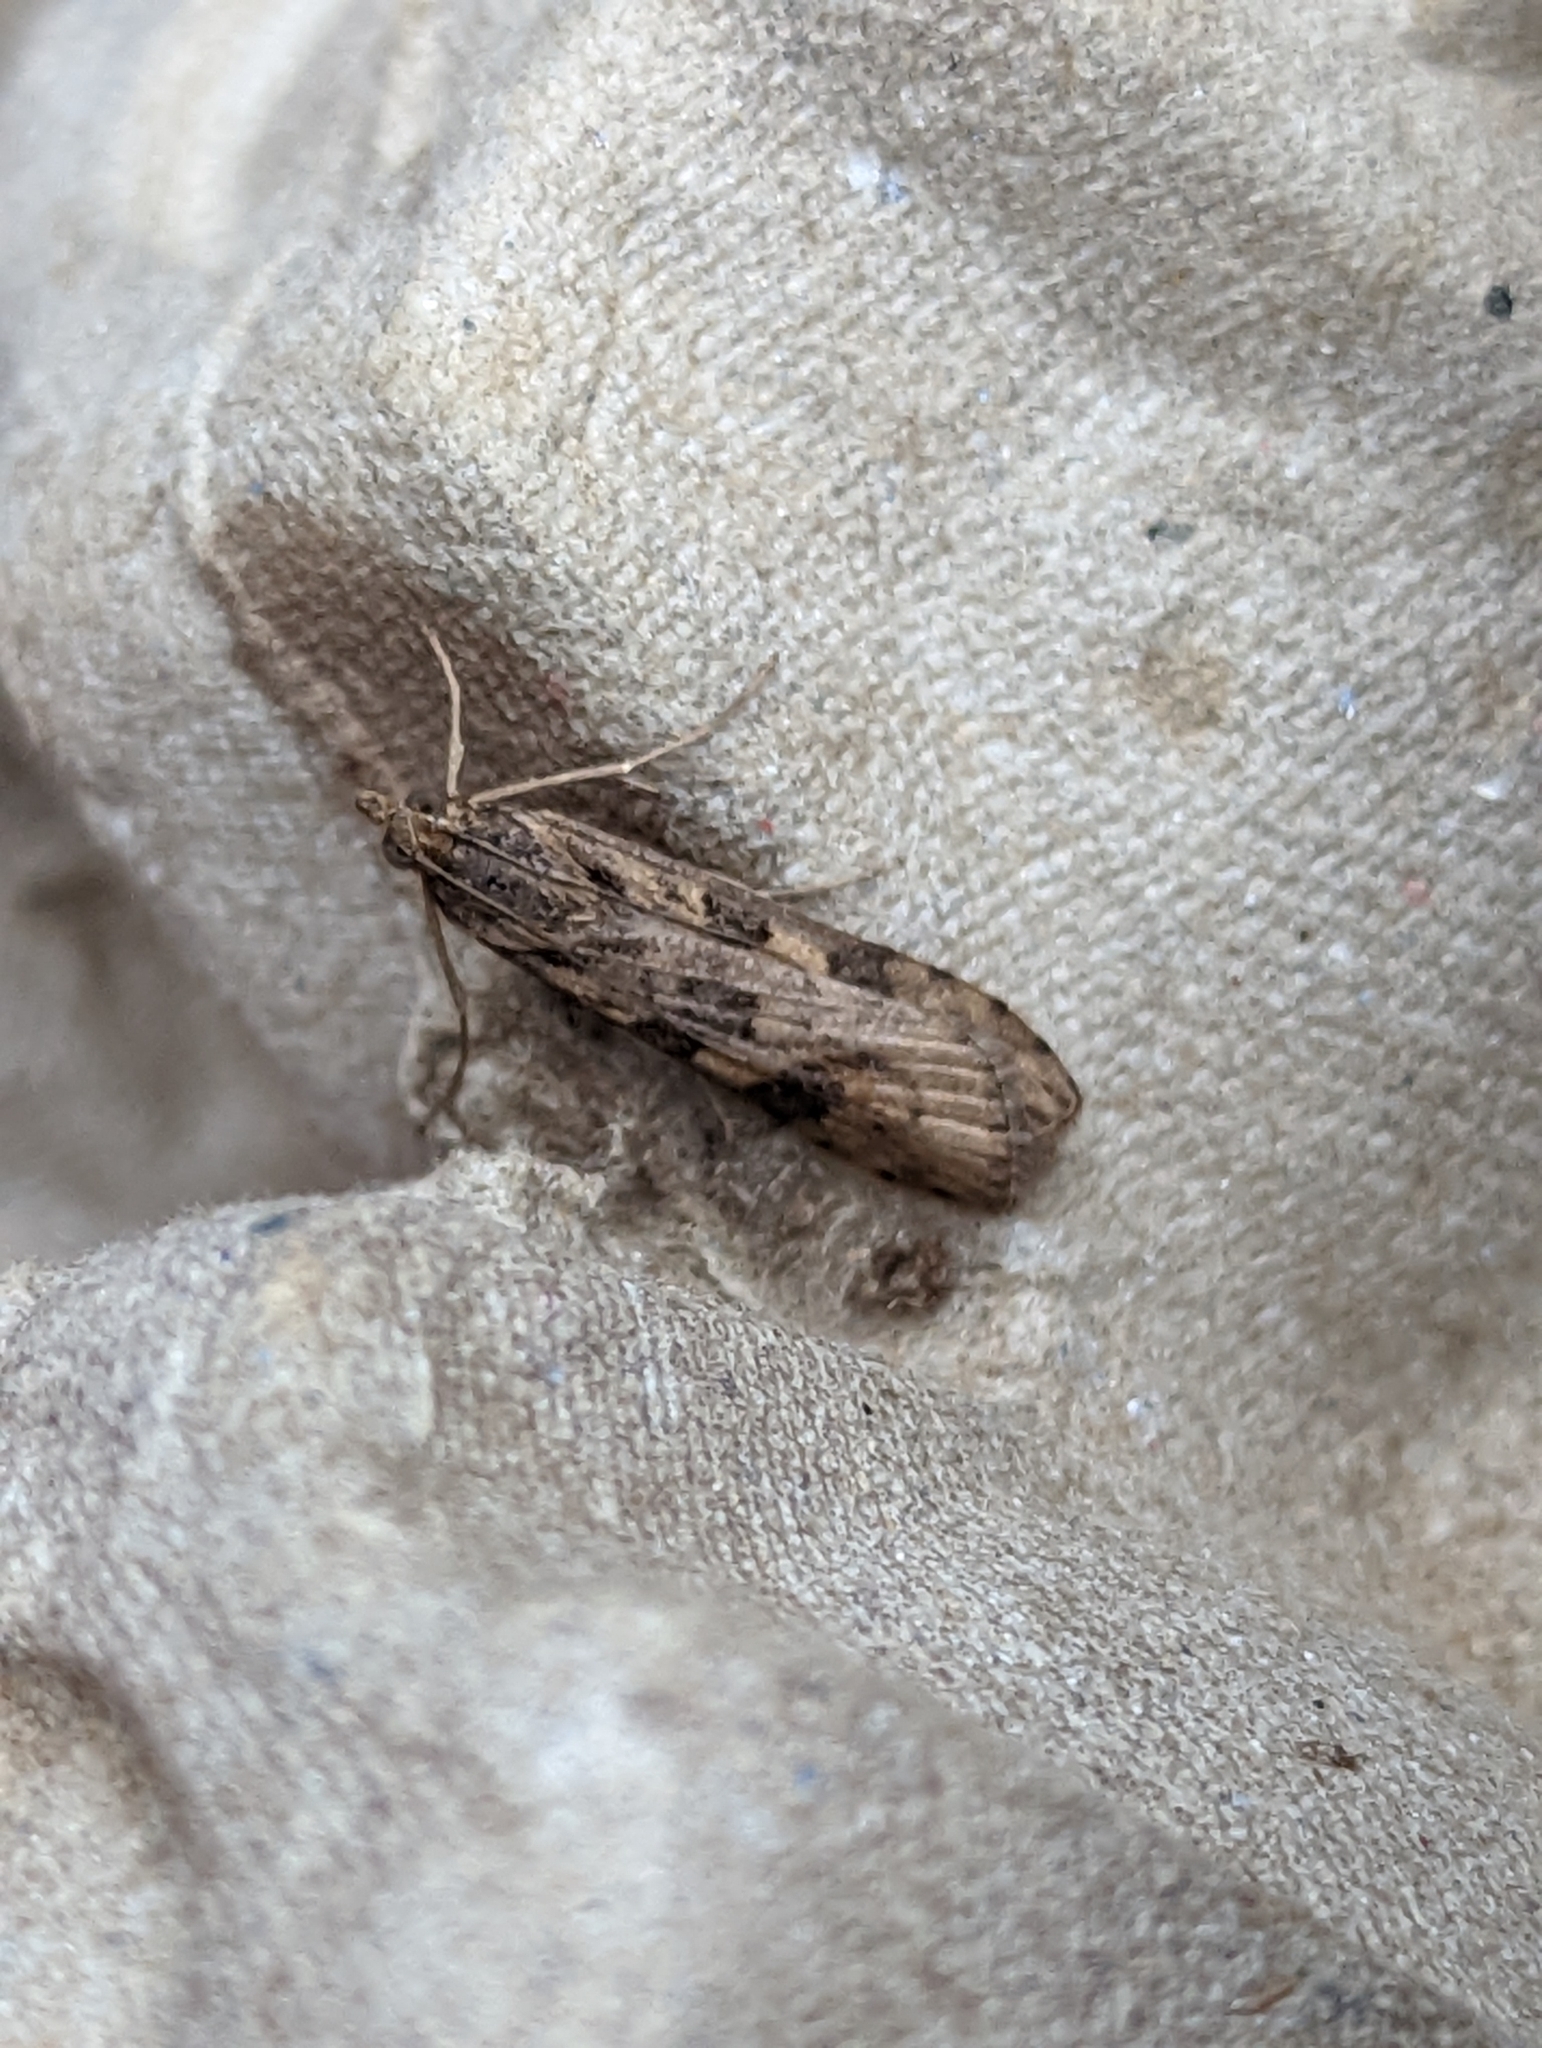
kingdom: Animalia
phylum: Arthropoda
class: Insecta
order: Lepidoptera
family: Crambidae
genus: Nomophila
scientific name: Nomophila noctuella
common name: Rush veneer
